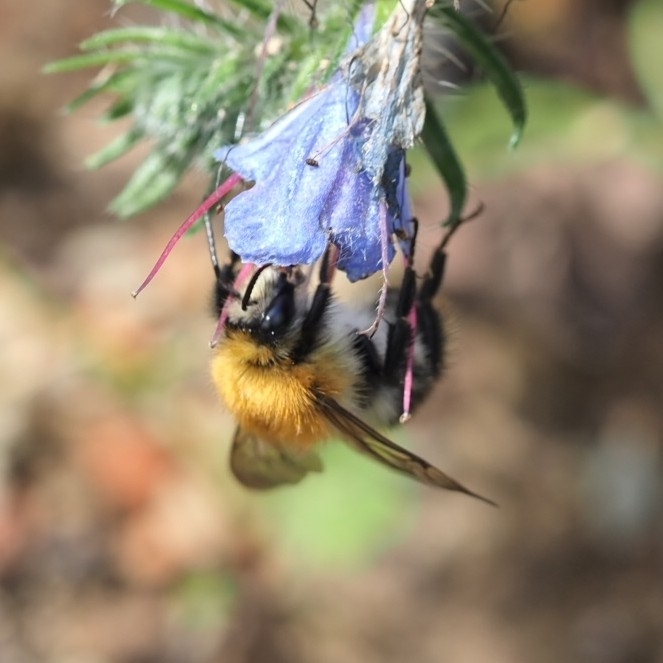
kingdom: Animalia
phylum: Arthropoda
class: Insecta
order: Hymenoptera
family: Apidae
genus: Bombus
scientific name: Bombus pascuorum
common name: Common carder bee
